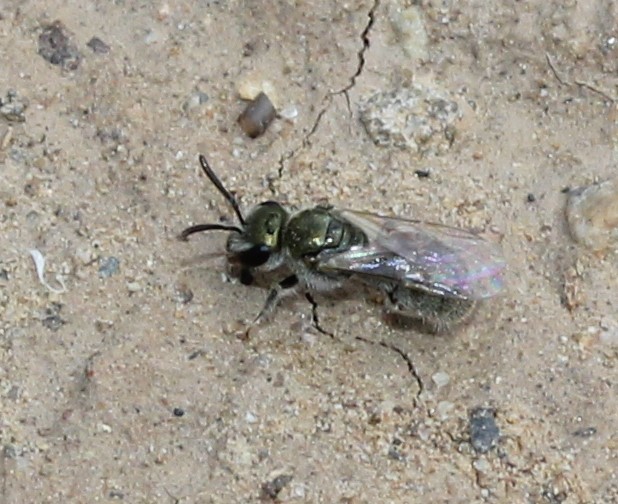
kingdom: Animalia
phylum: Arthropoda
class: Insecta
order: Hymenoptera
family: Halictidae
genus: Dialictus
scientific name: Dialictus
